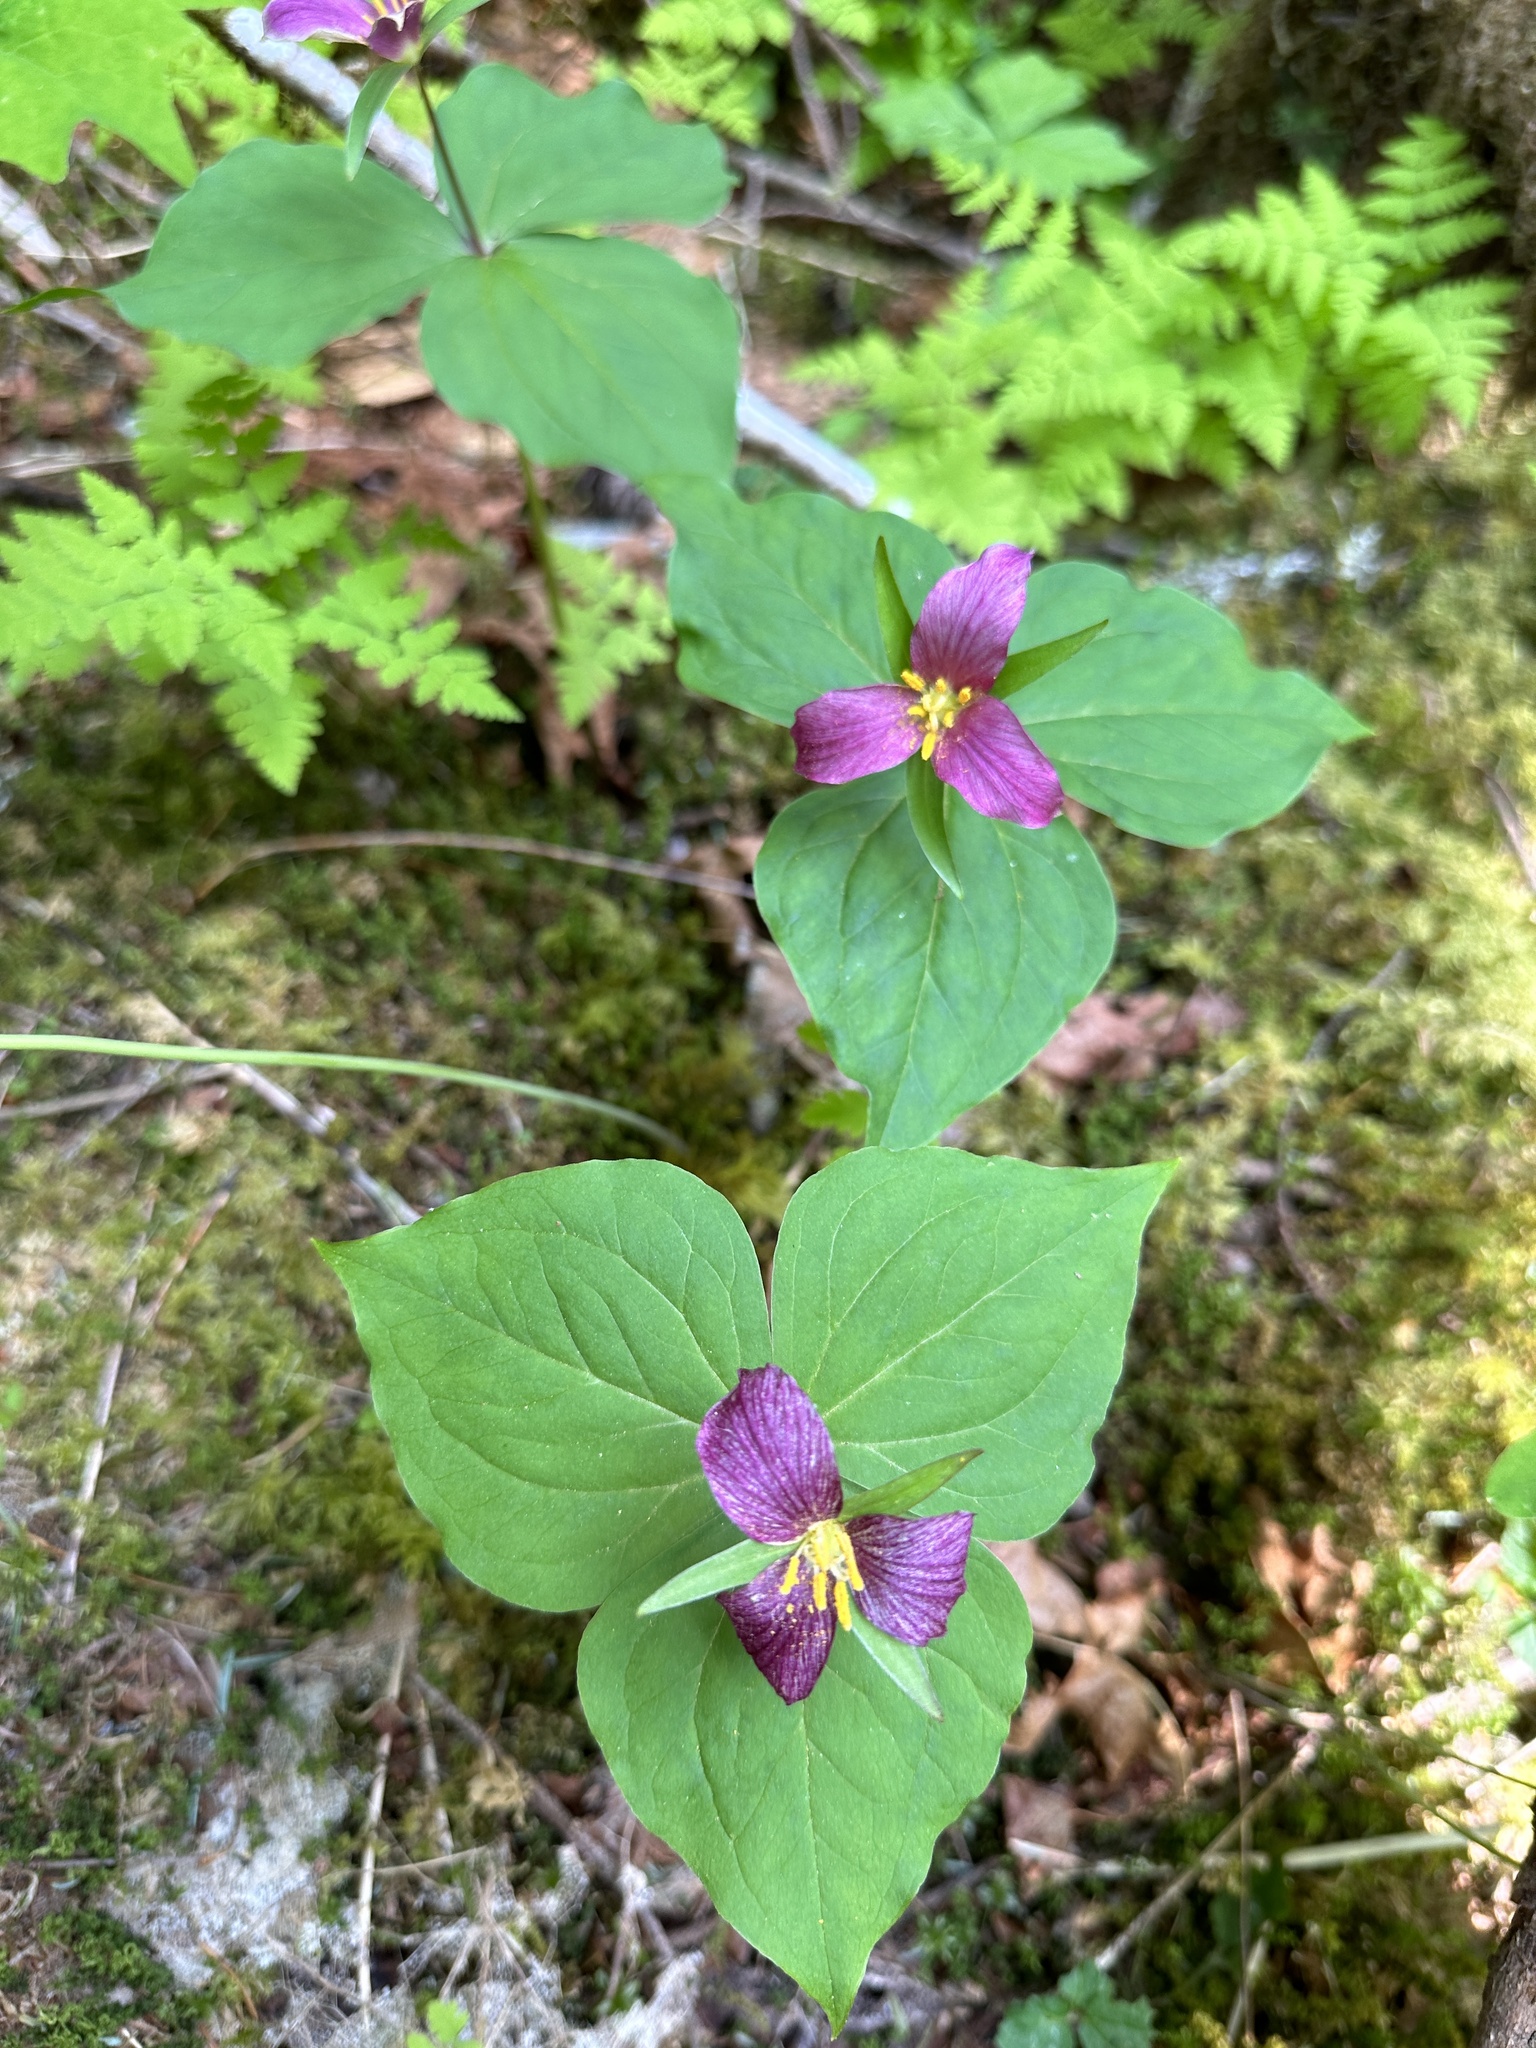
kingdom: Plantae
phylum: Tracheophyta
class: Liliopsida
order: Liliales
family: Melanthiaceae
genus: Trillium
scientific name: Trillium ovatum
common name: Pacific trillium
